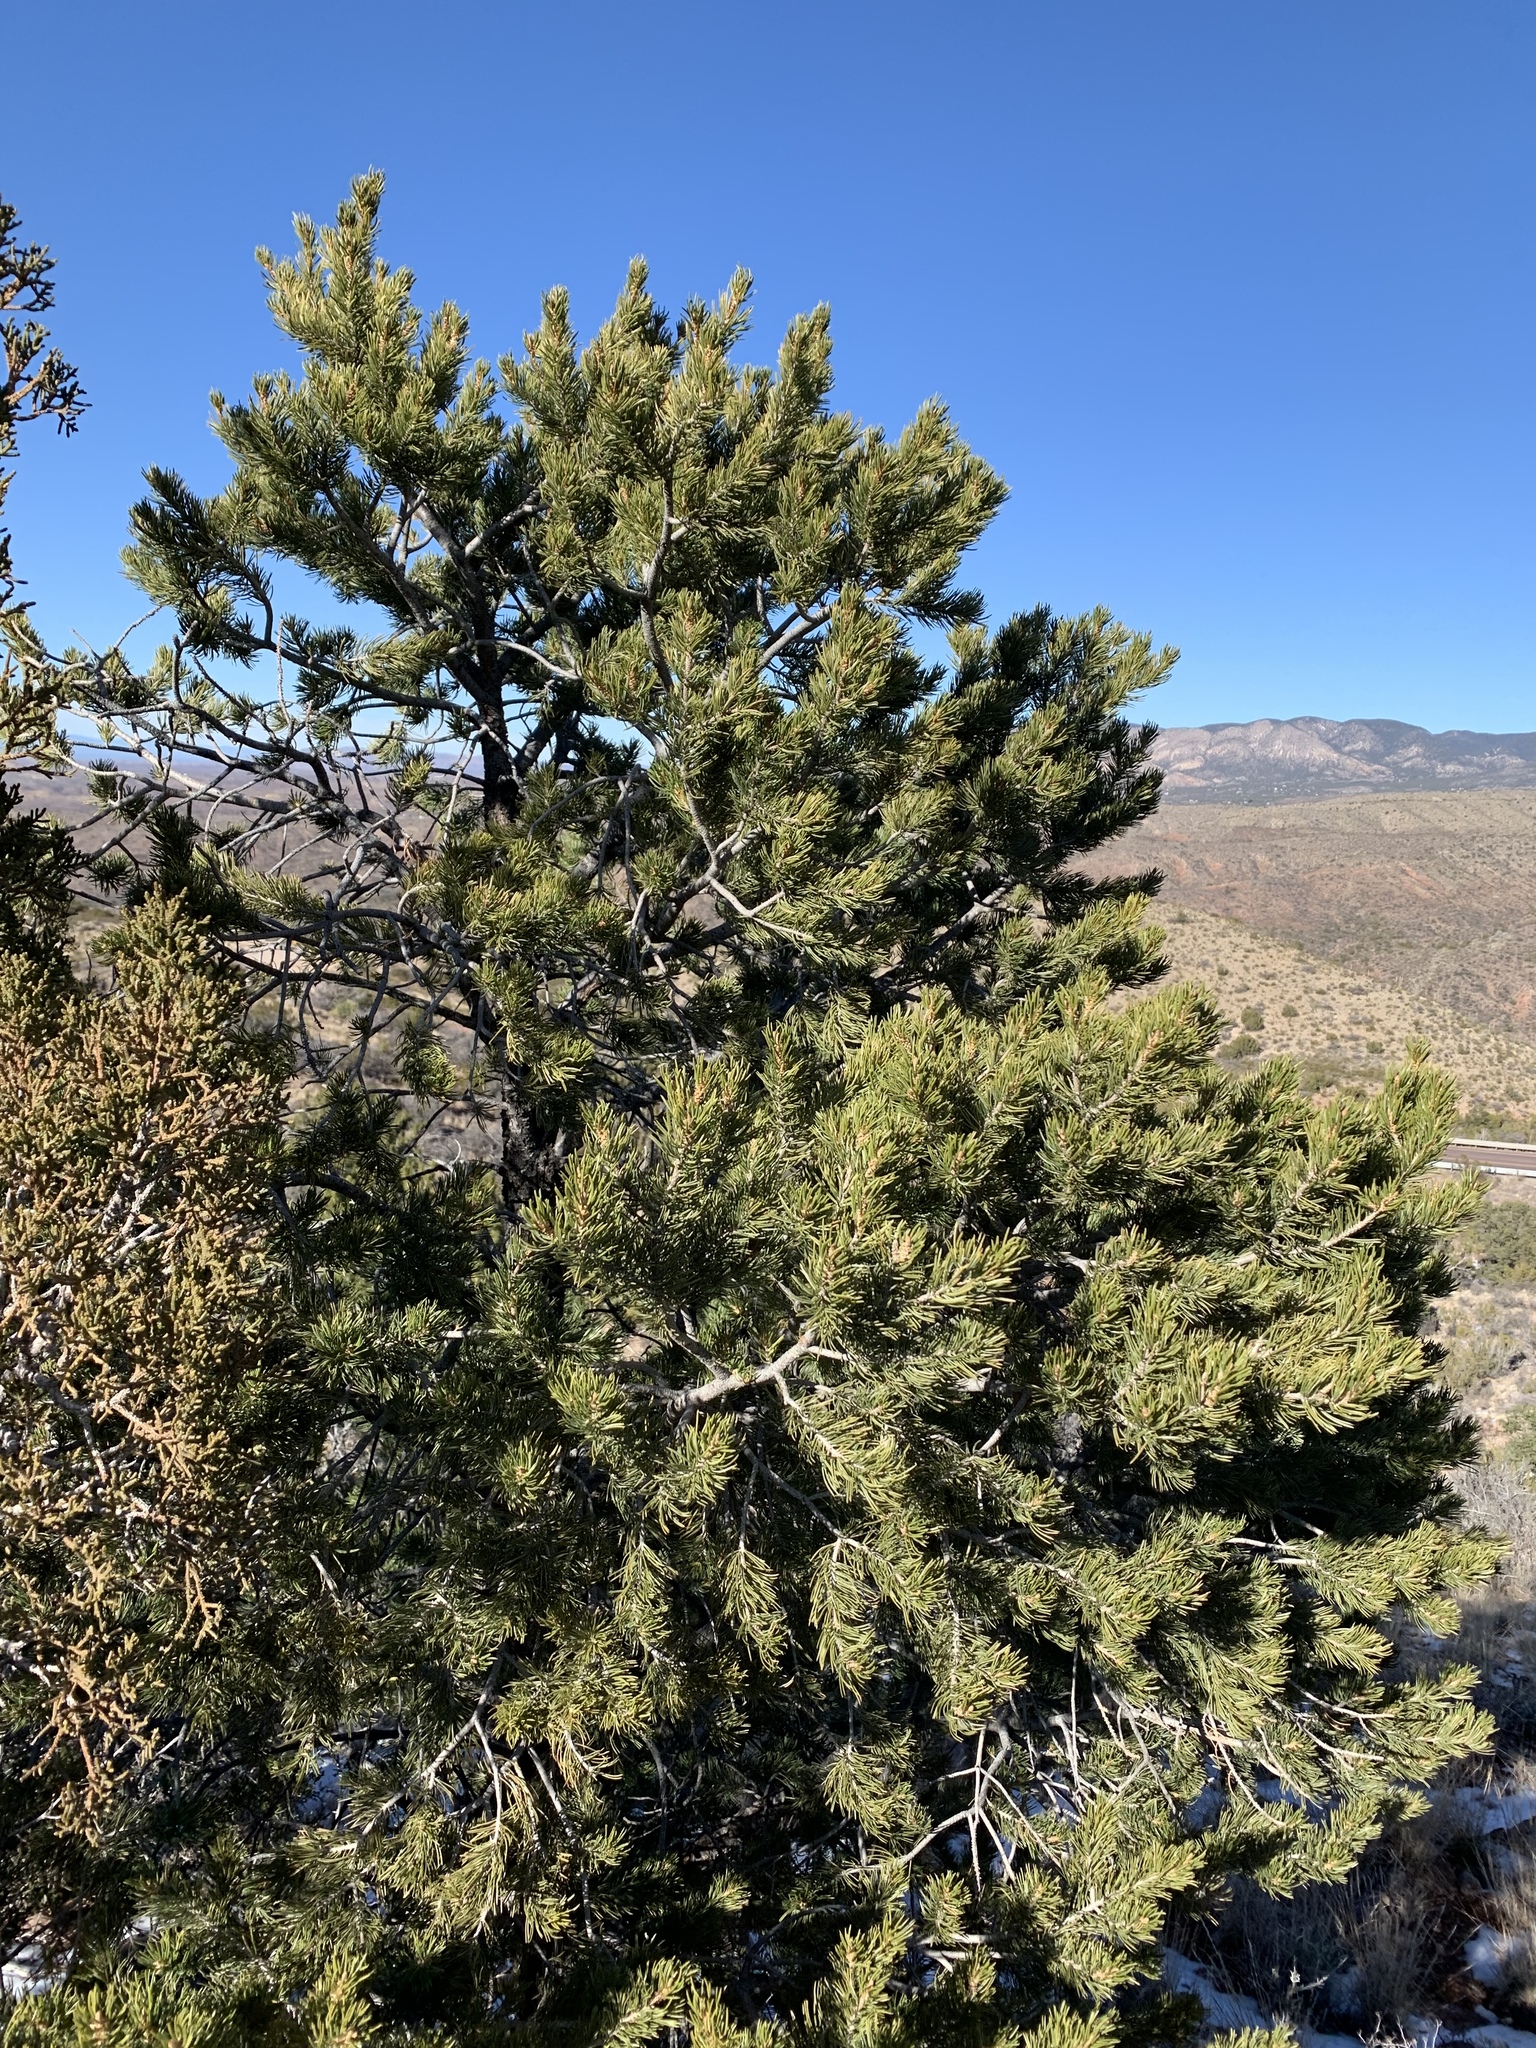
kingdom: Plantae
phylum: Tracheophyta
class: Pinopsida
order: Pinales
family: Pinaceae
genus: Pinus
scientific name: Pinus edulis
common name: Colorado pinyon
